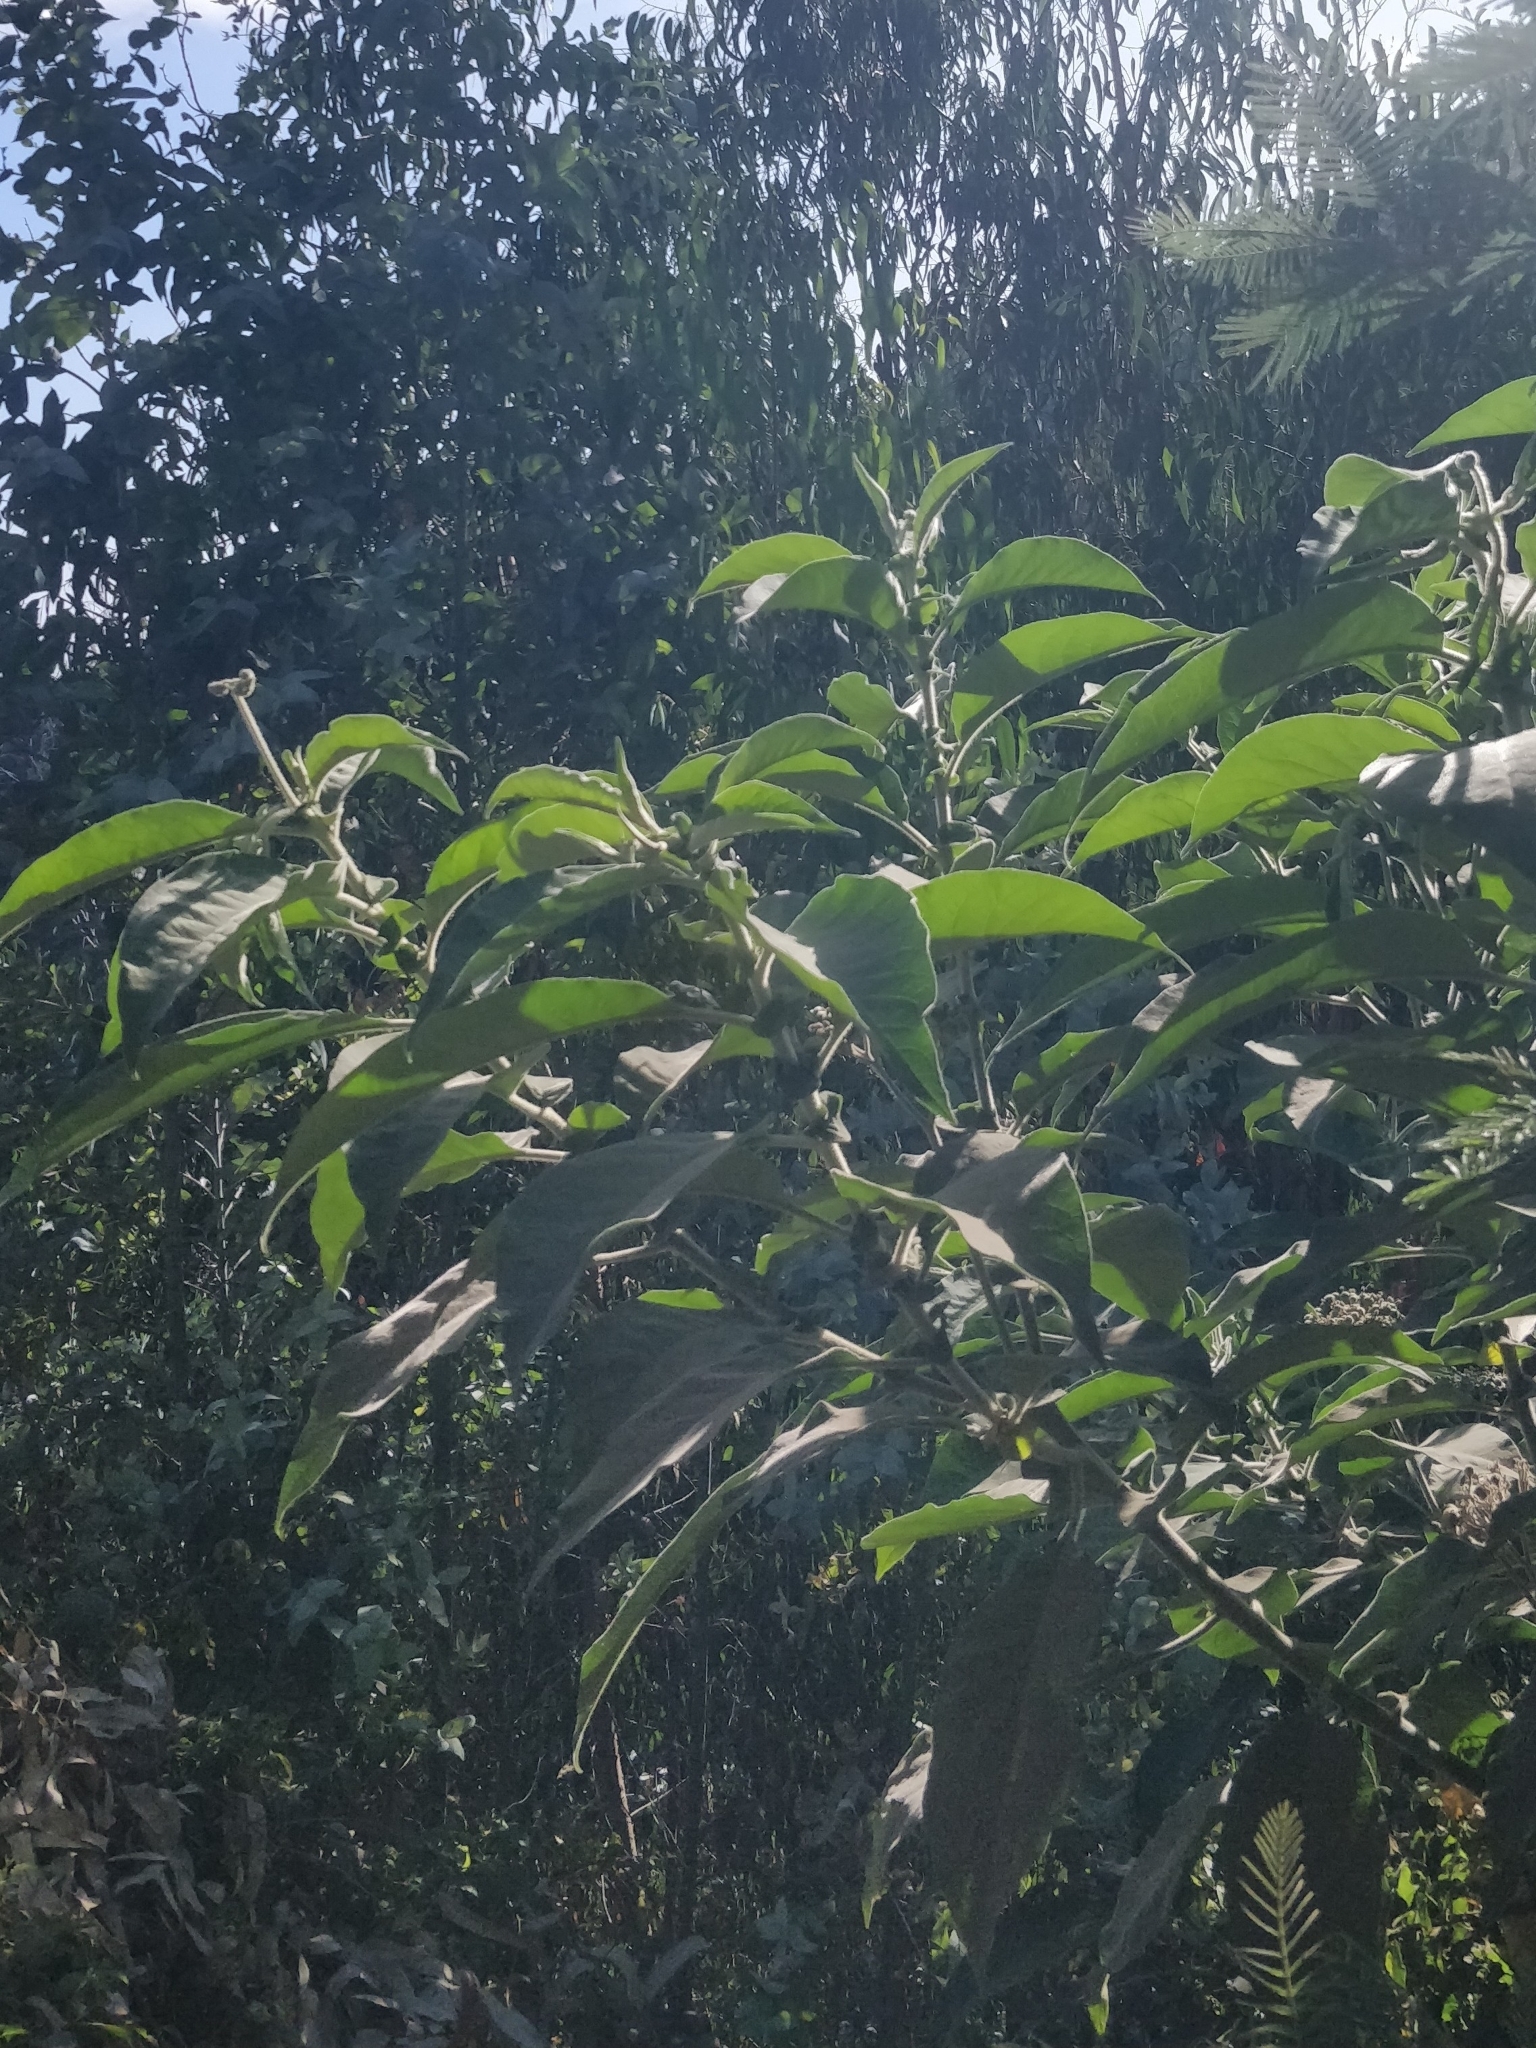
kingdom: Plantae
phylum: Tracheophyta
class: Magnoliopsida
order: Solanales
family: Solanaceae
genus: Solanum
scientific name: Solanum mauritianum
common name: Earleaf nightshade
